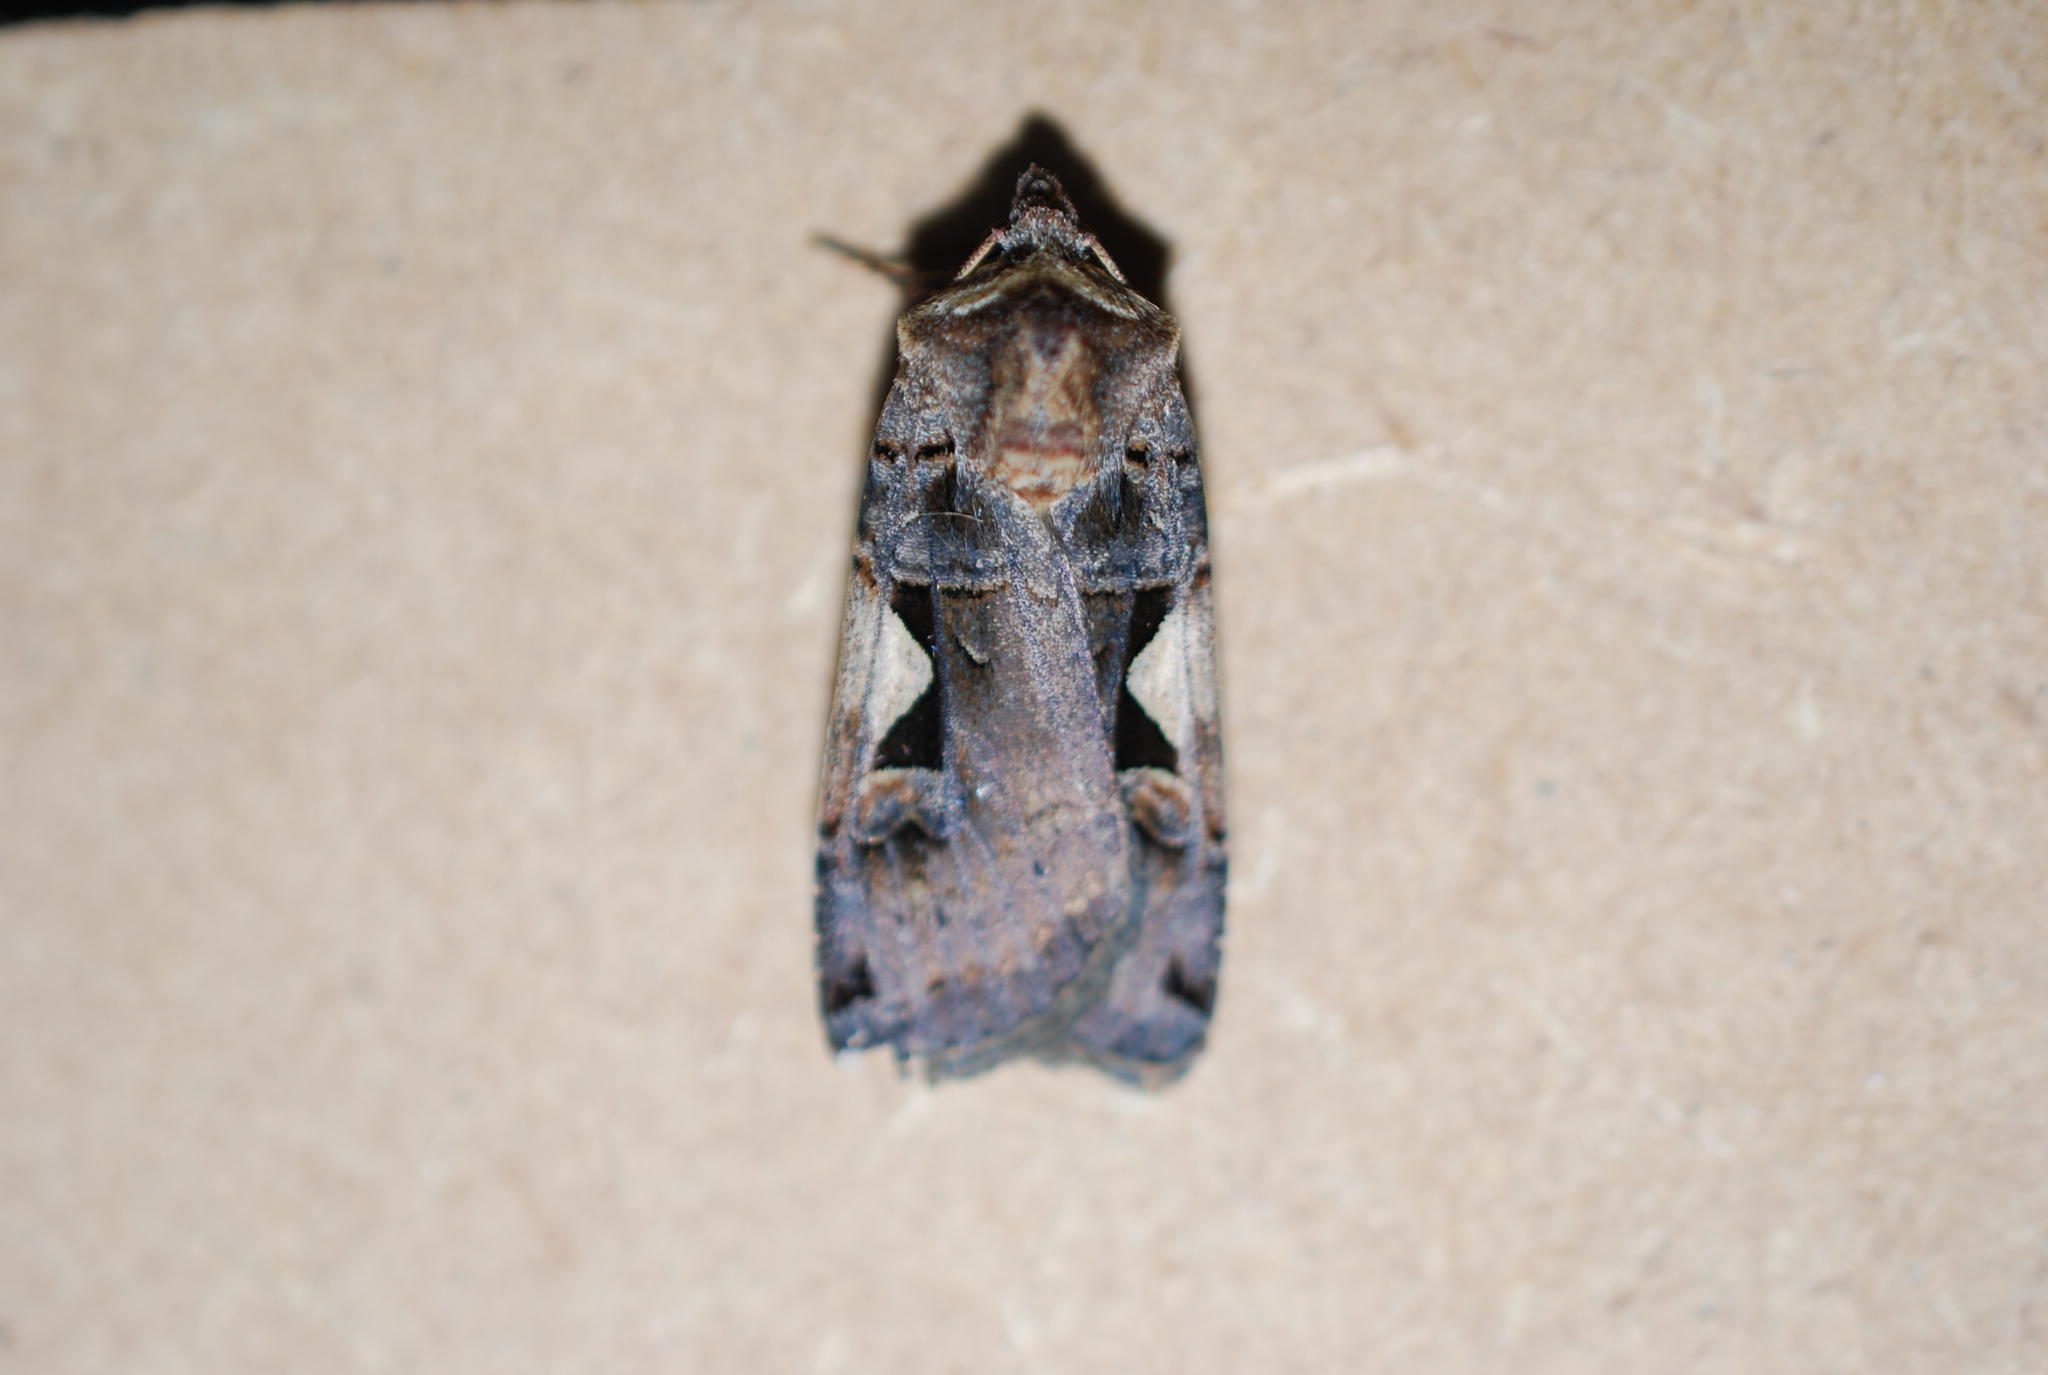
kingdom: Animalia
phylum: Arthropoda
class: Insecta
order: Lepidoptera
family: Noctuidae
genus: Xestia
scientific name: Xestia c-nigrum
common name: Setaceous hebrew character
